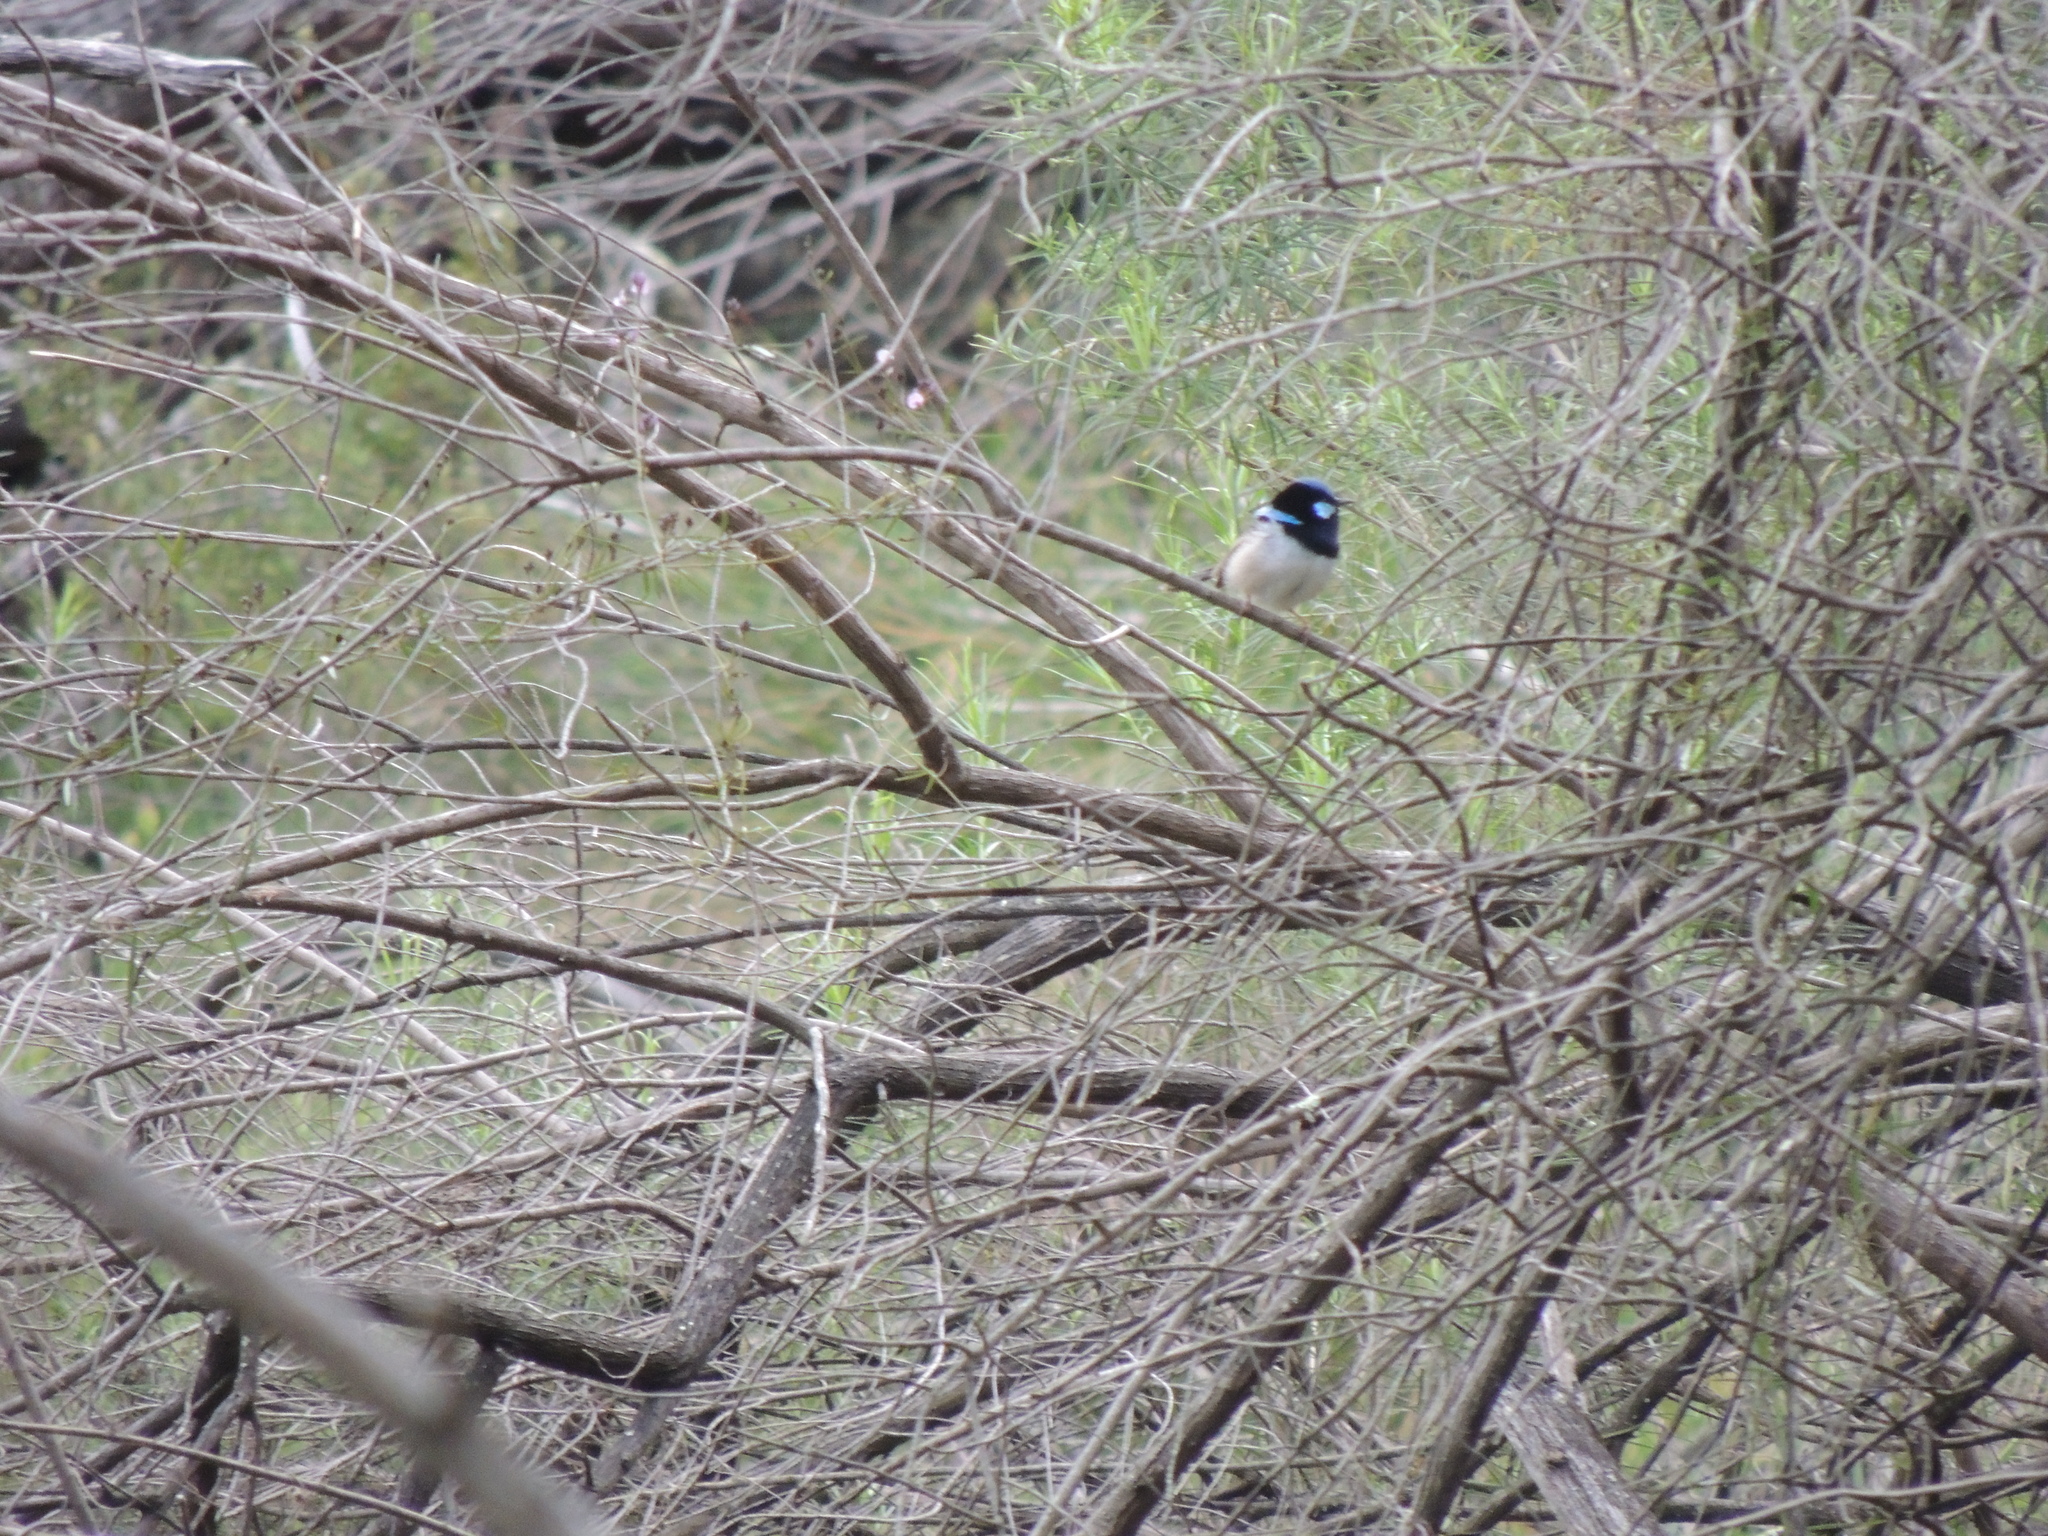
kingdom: Animalia
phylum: Chordata
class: Aves
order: Passeriformes
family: Maluridae
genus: Malurus
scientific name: Malurus cyaneus
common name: Superb fairywren
